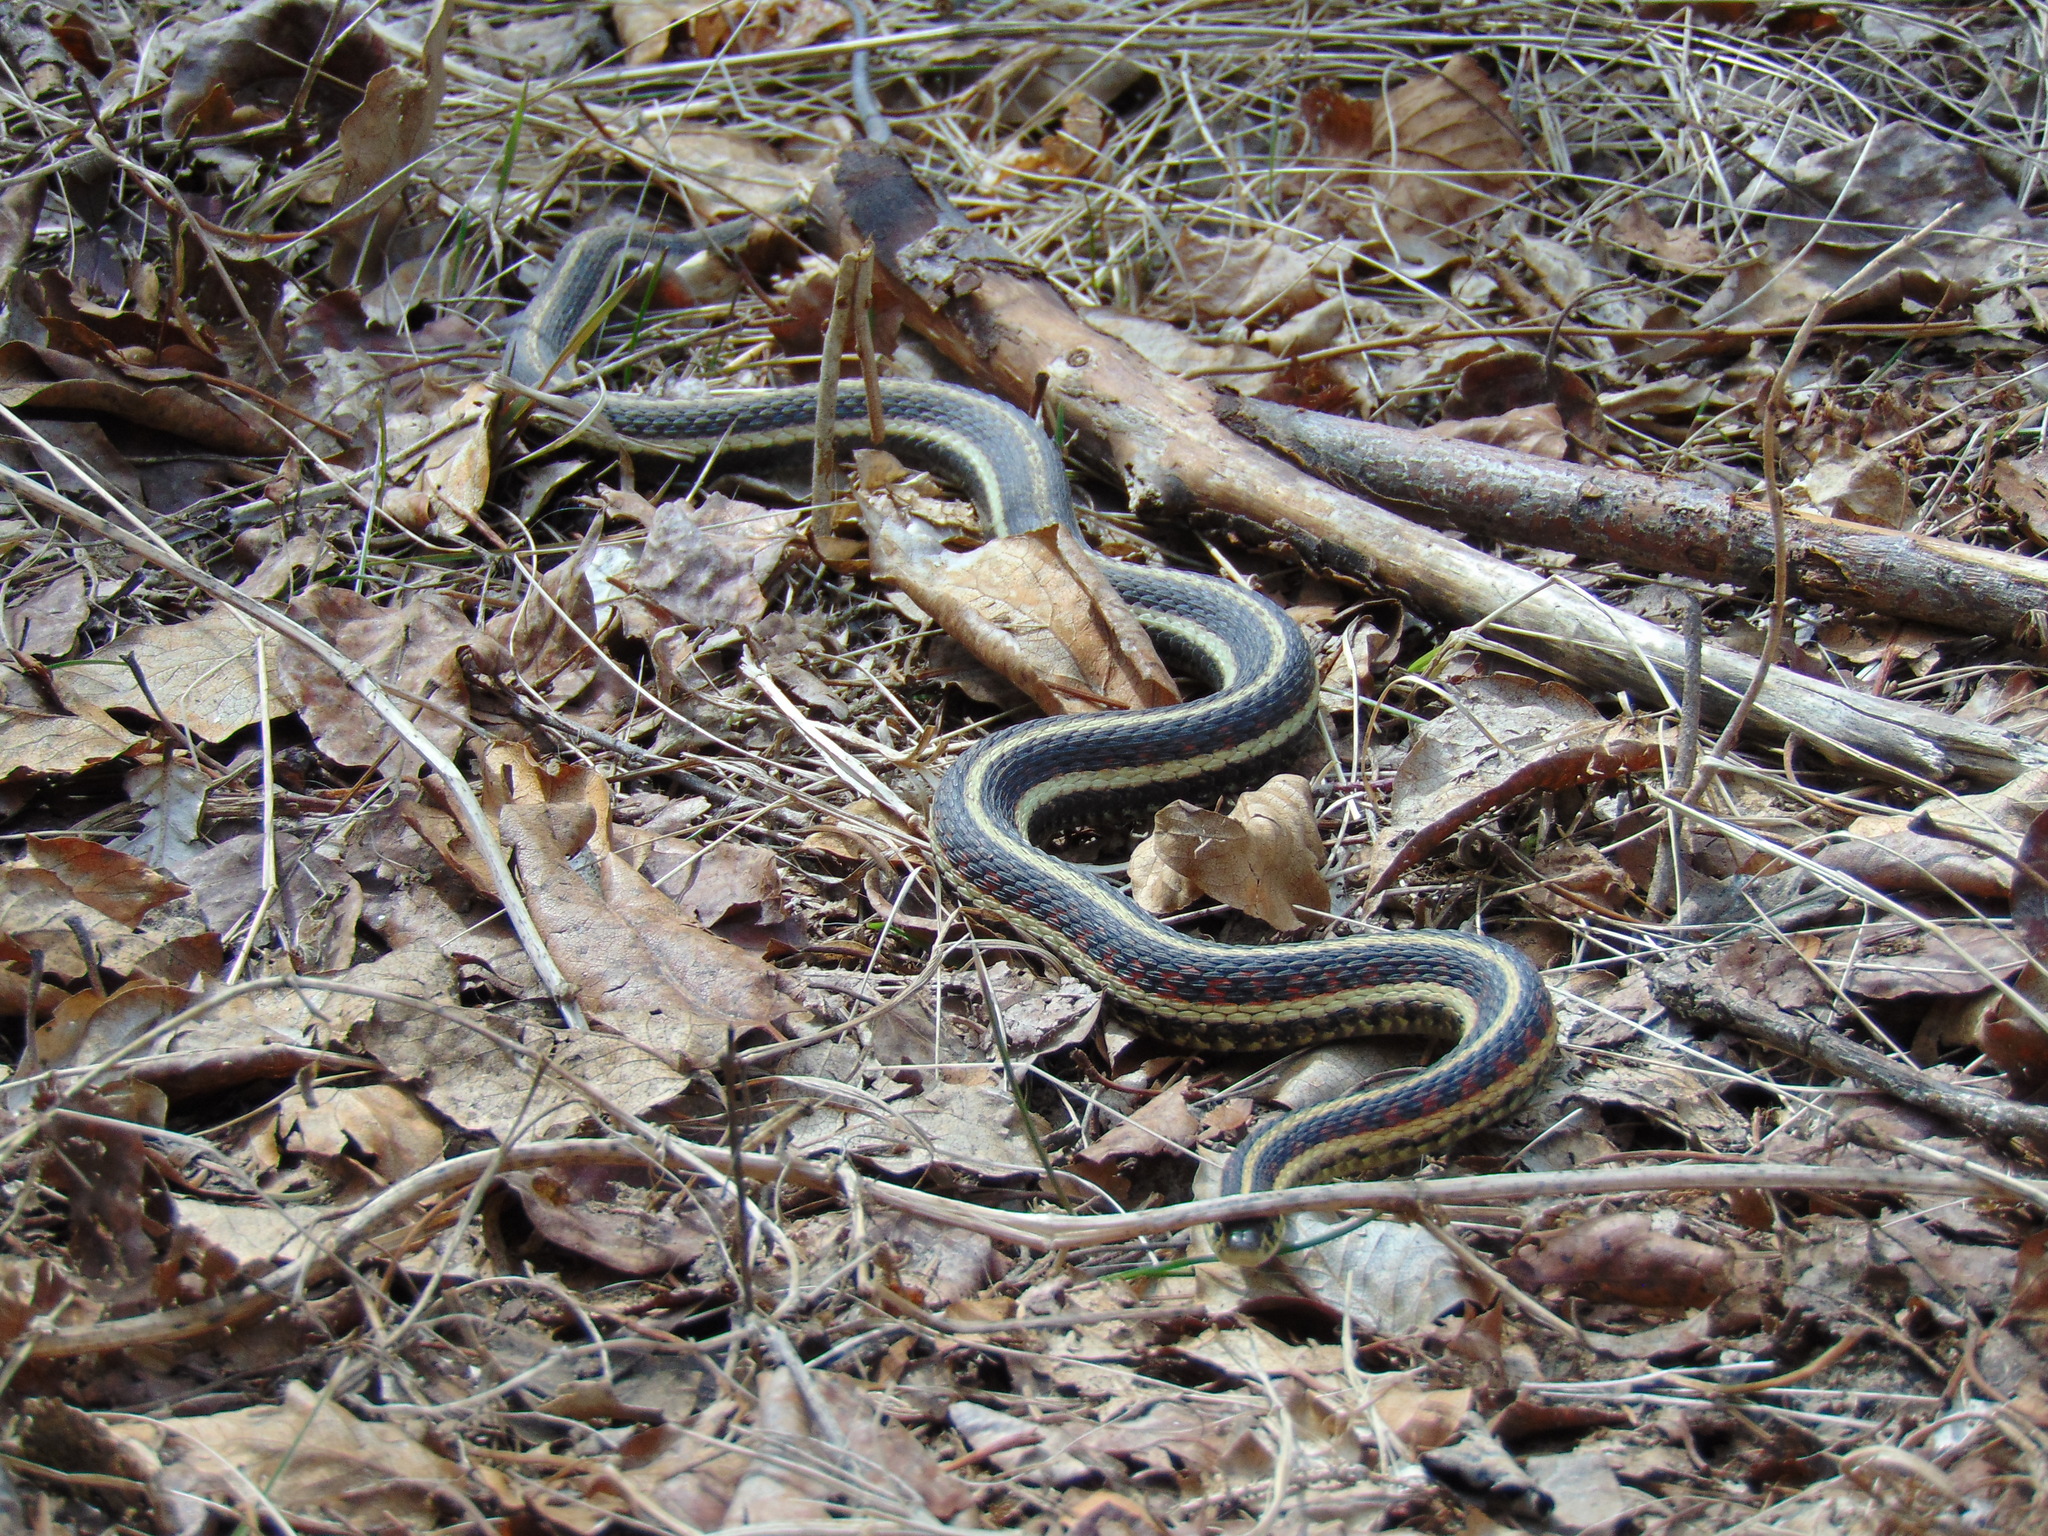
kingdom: Animalia
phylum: Chordata
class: Squamata
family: Colubridae
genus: Thamnophis
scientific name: Thamnophis sirtalis
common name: Common garter snake
